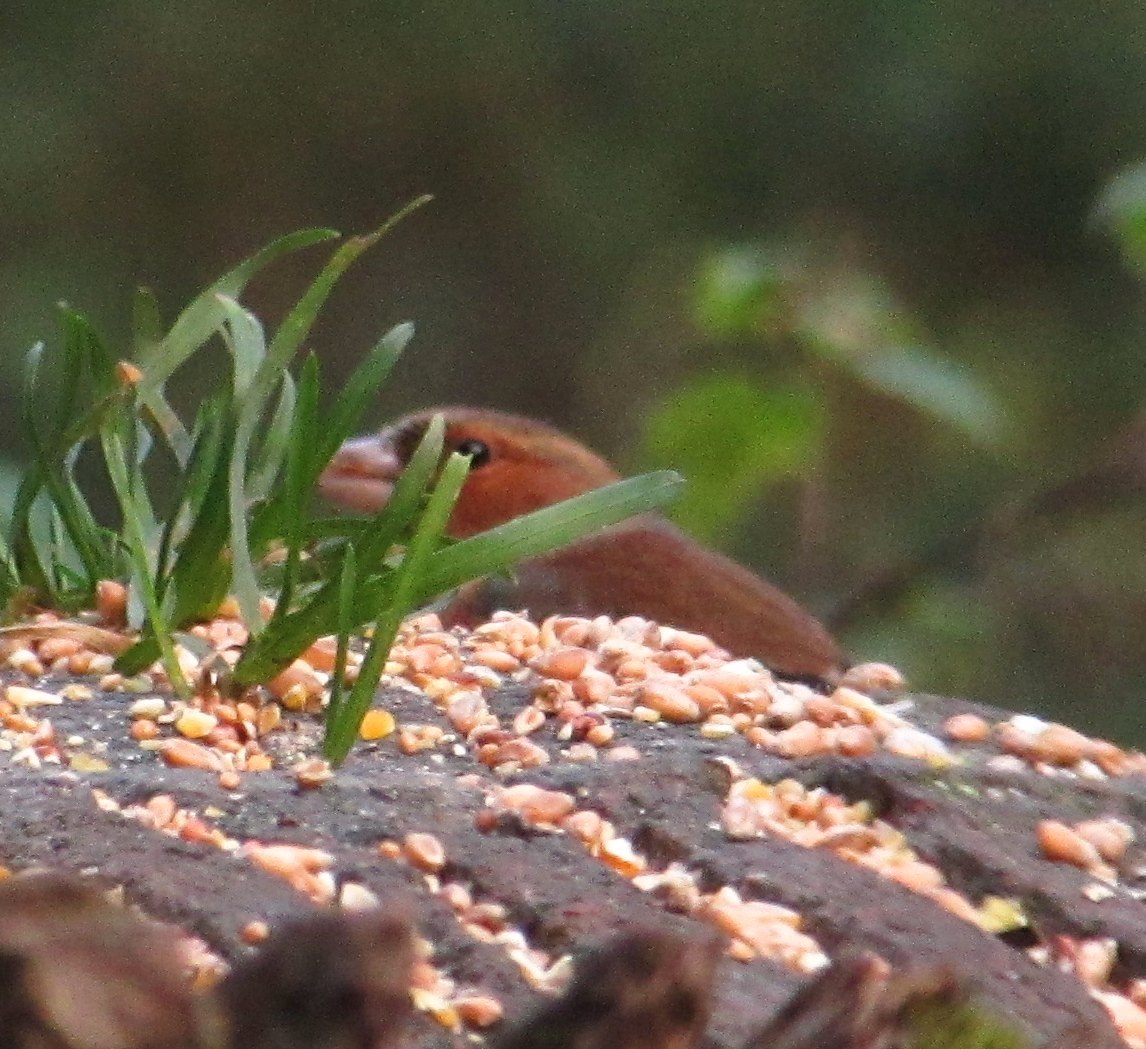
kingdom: Animalia
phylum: Chordata
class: Aves
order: Passeriformes
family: Fringillidae
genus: Fringilla
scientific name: Fringilla coelebs
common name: Common chaffinch
